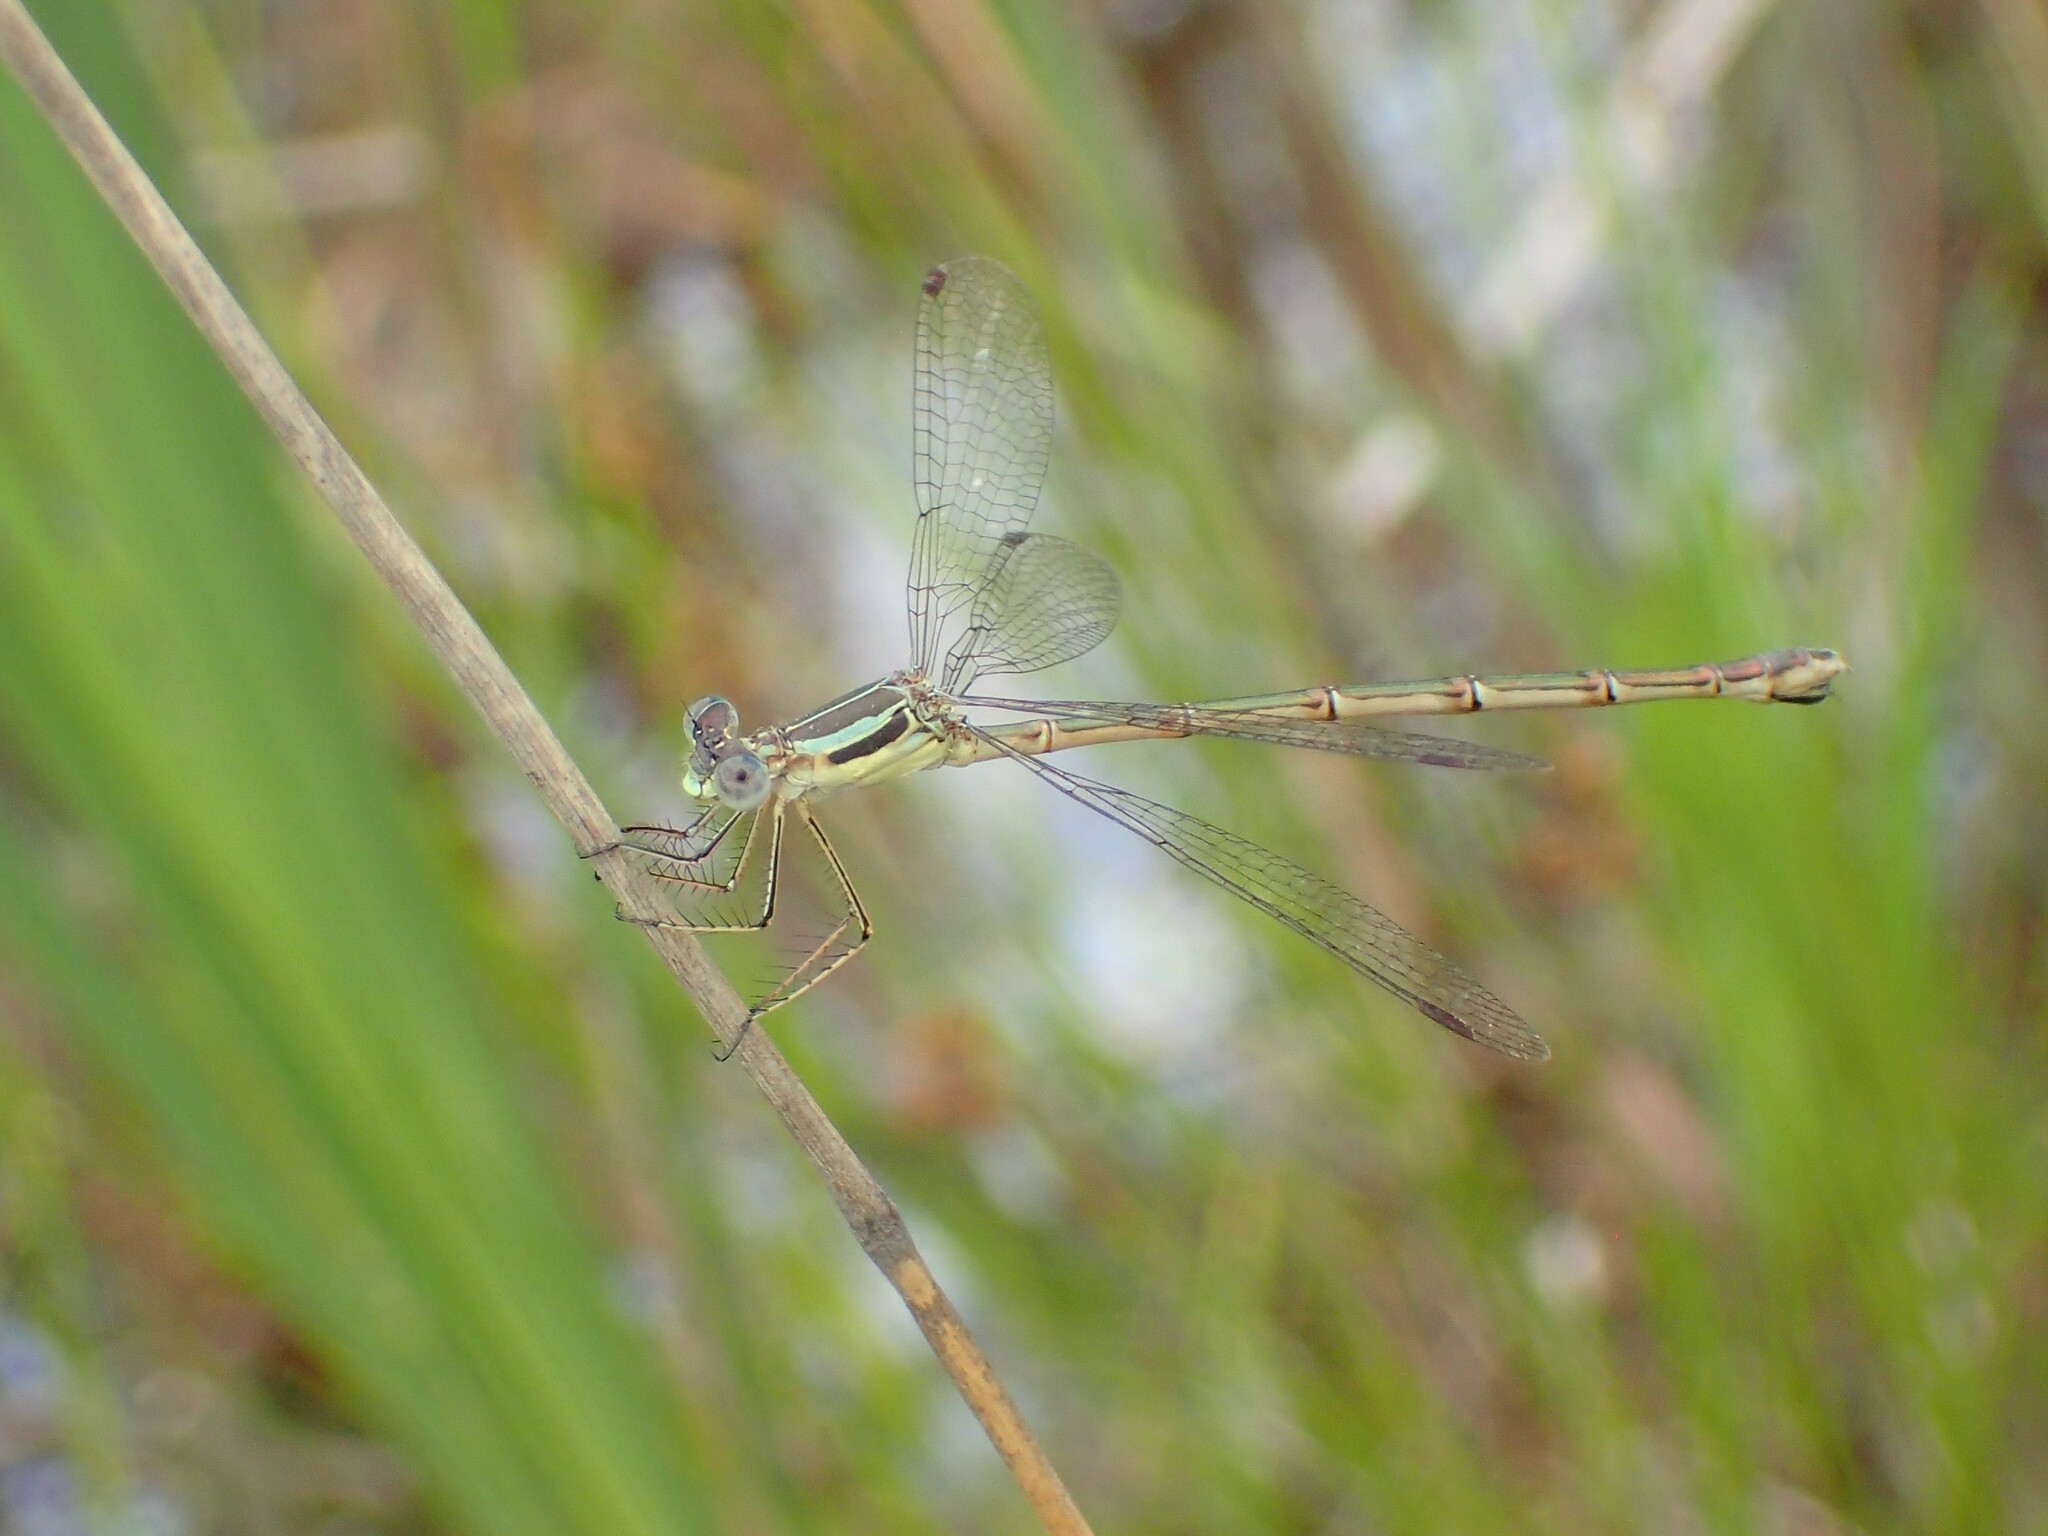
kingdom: Animalia
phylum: Arthropoda
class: Insecta
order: Odonata
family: Lestidae
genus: Lestes
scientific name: Lestes rectangularis
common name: Slender spreadwing
